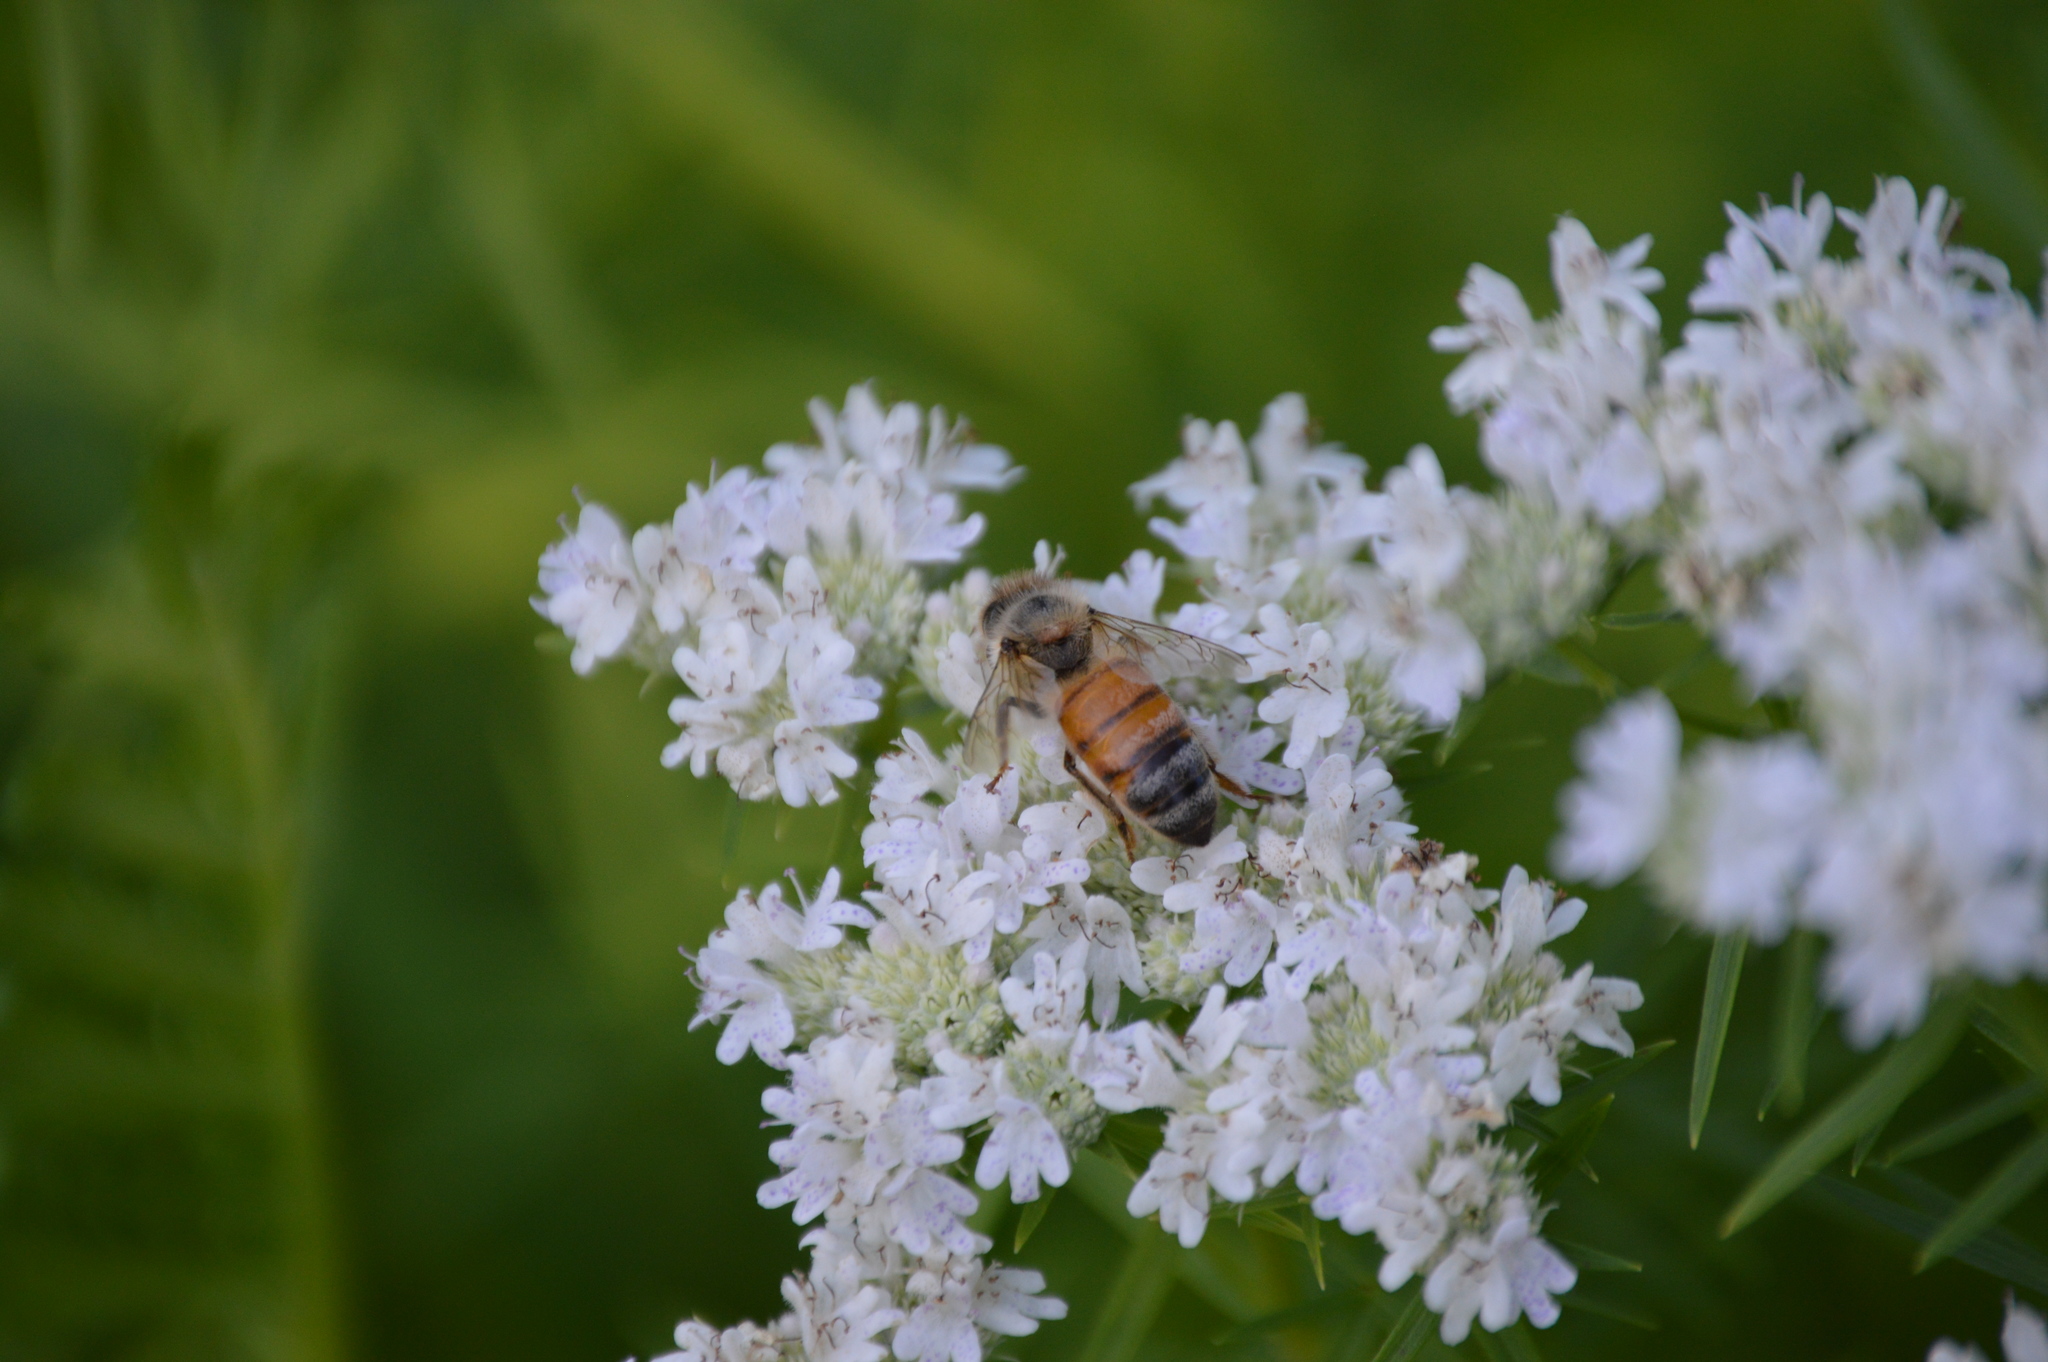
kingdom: Animalia
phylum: Arthropoda
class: Insecta
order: Hymenoptera
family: Apidae
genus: Apis
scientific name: Apis mellifera
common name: Honey bee
